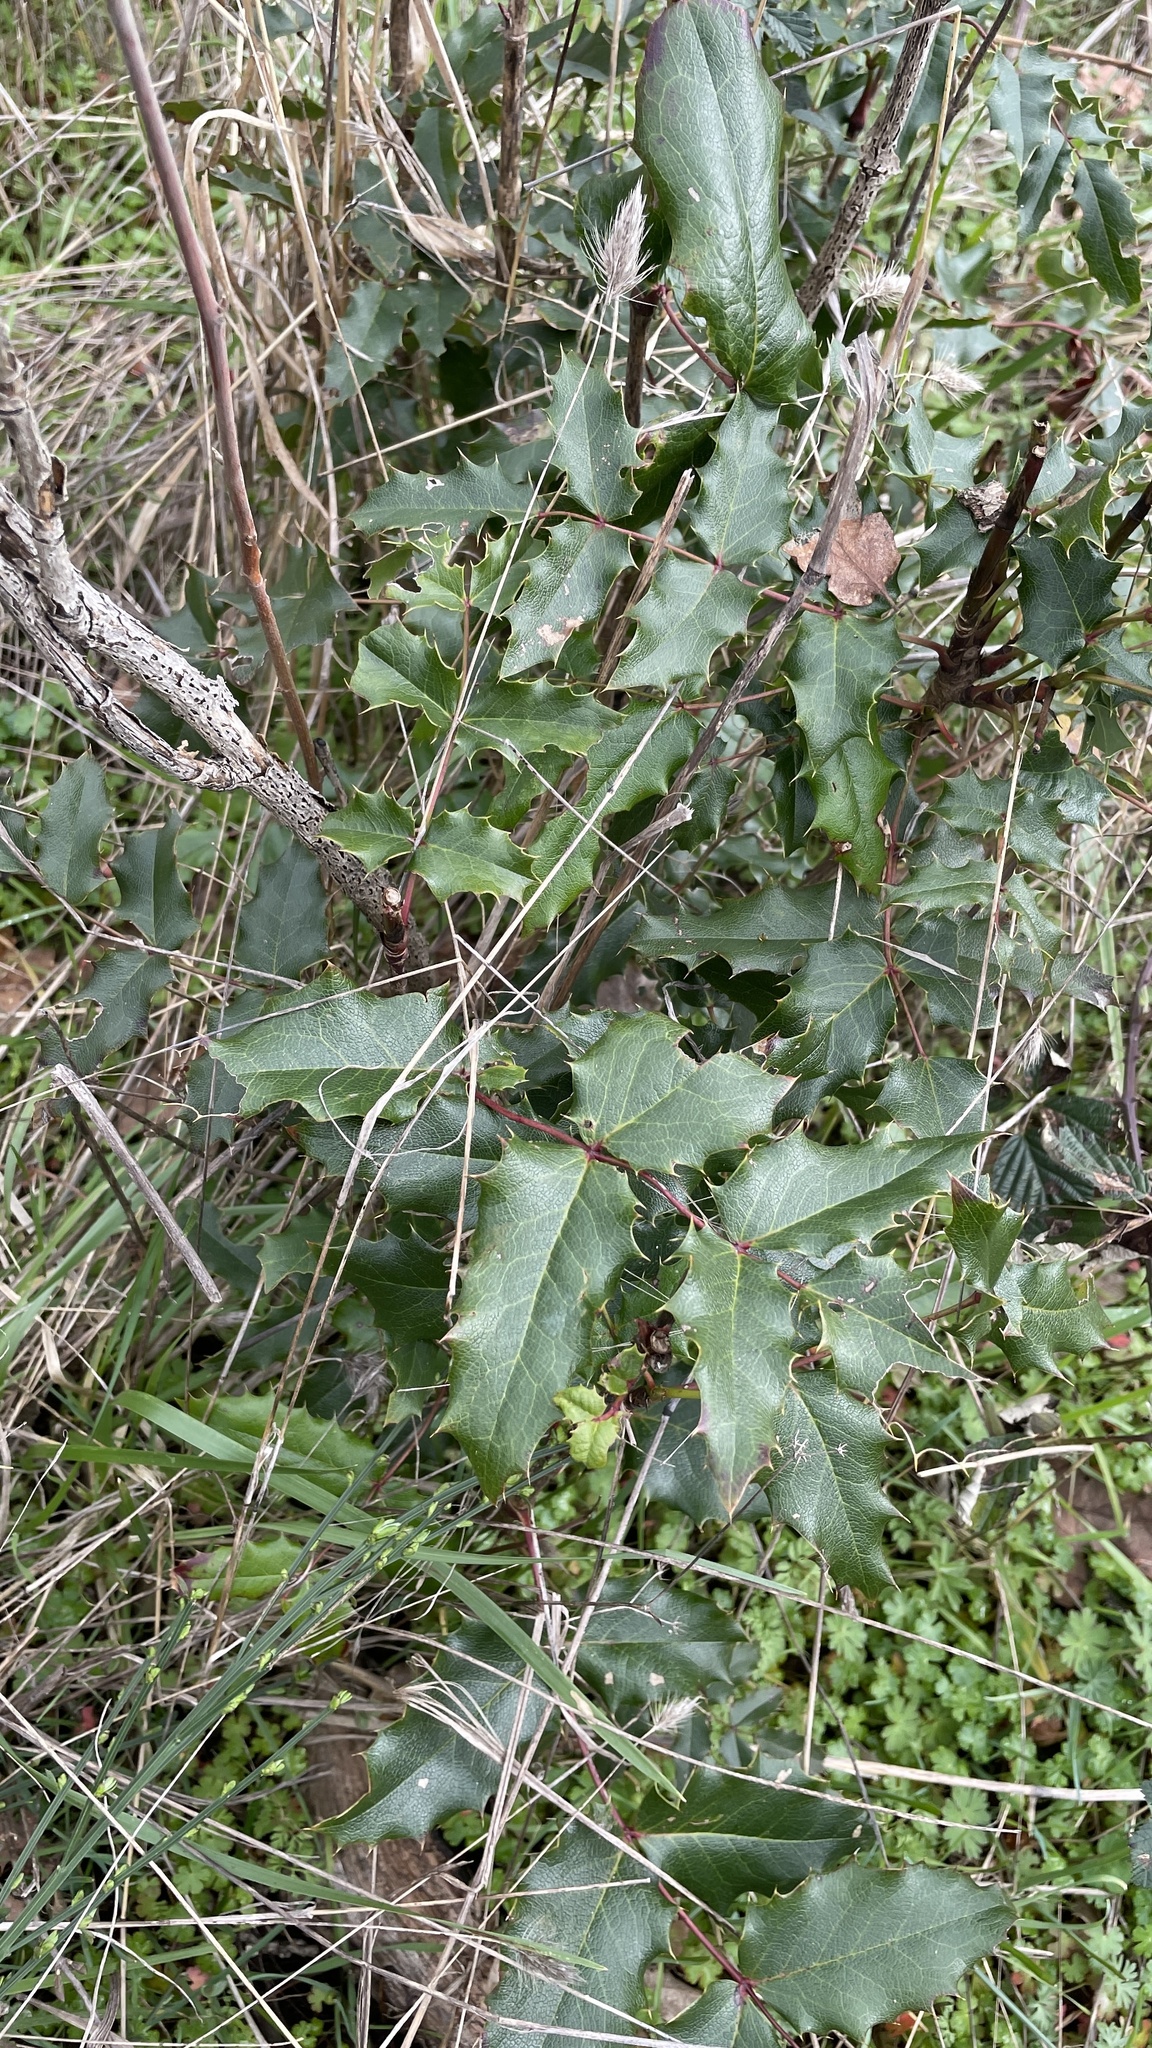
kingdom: Plantae
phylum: Tracheophyta
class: Magnoliopsida
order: Ranunculales
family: Berberidaceae
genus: Mahonia
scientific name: Mahonia aquifolium
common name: Oregon-grape
